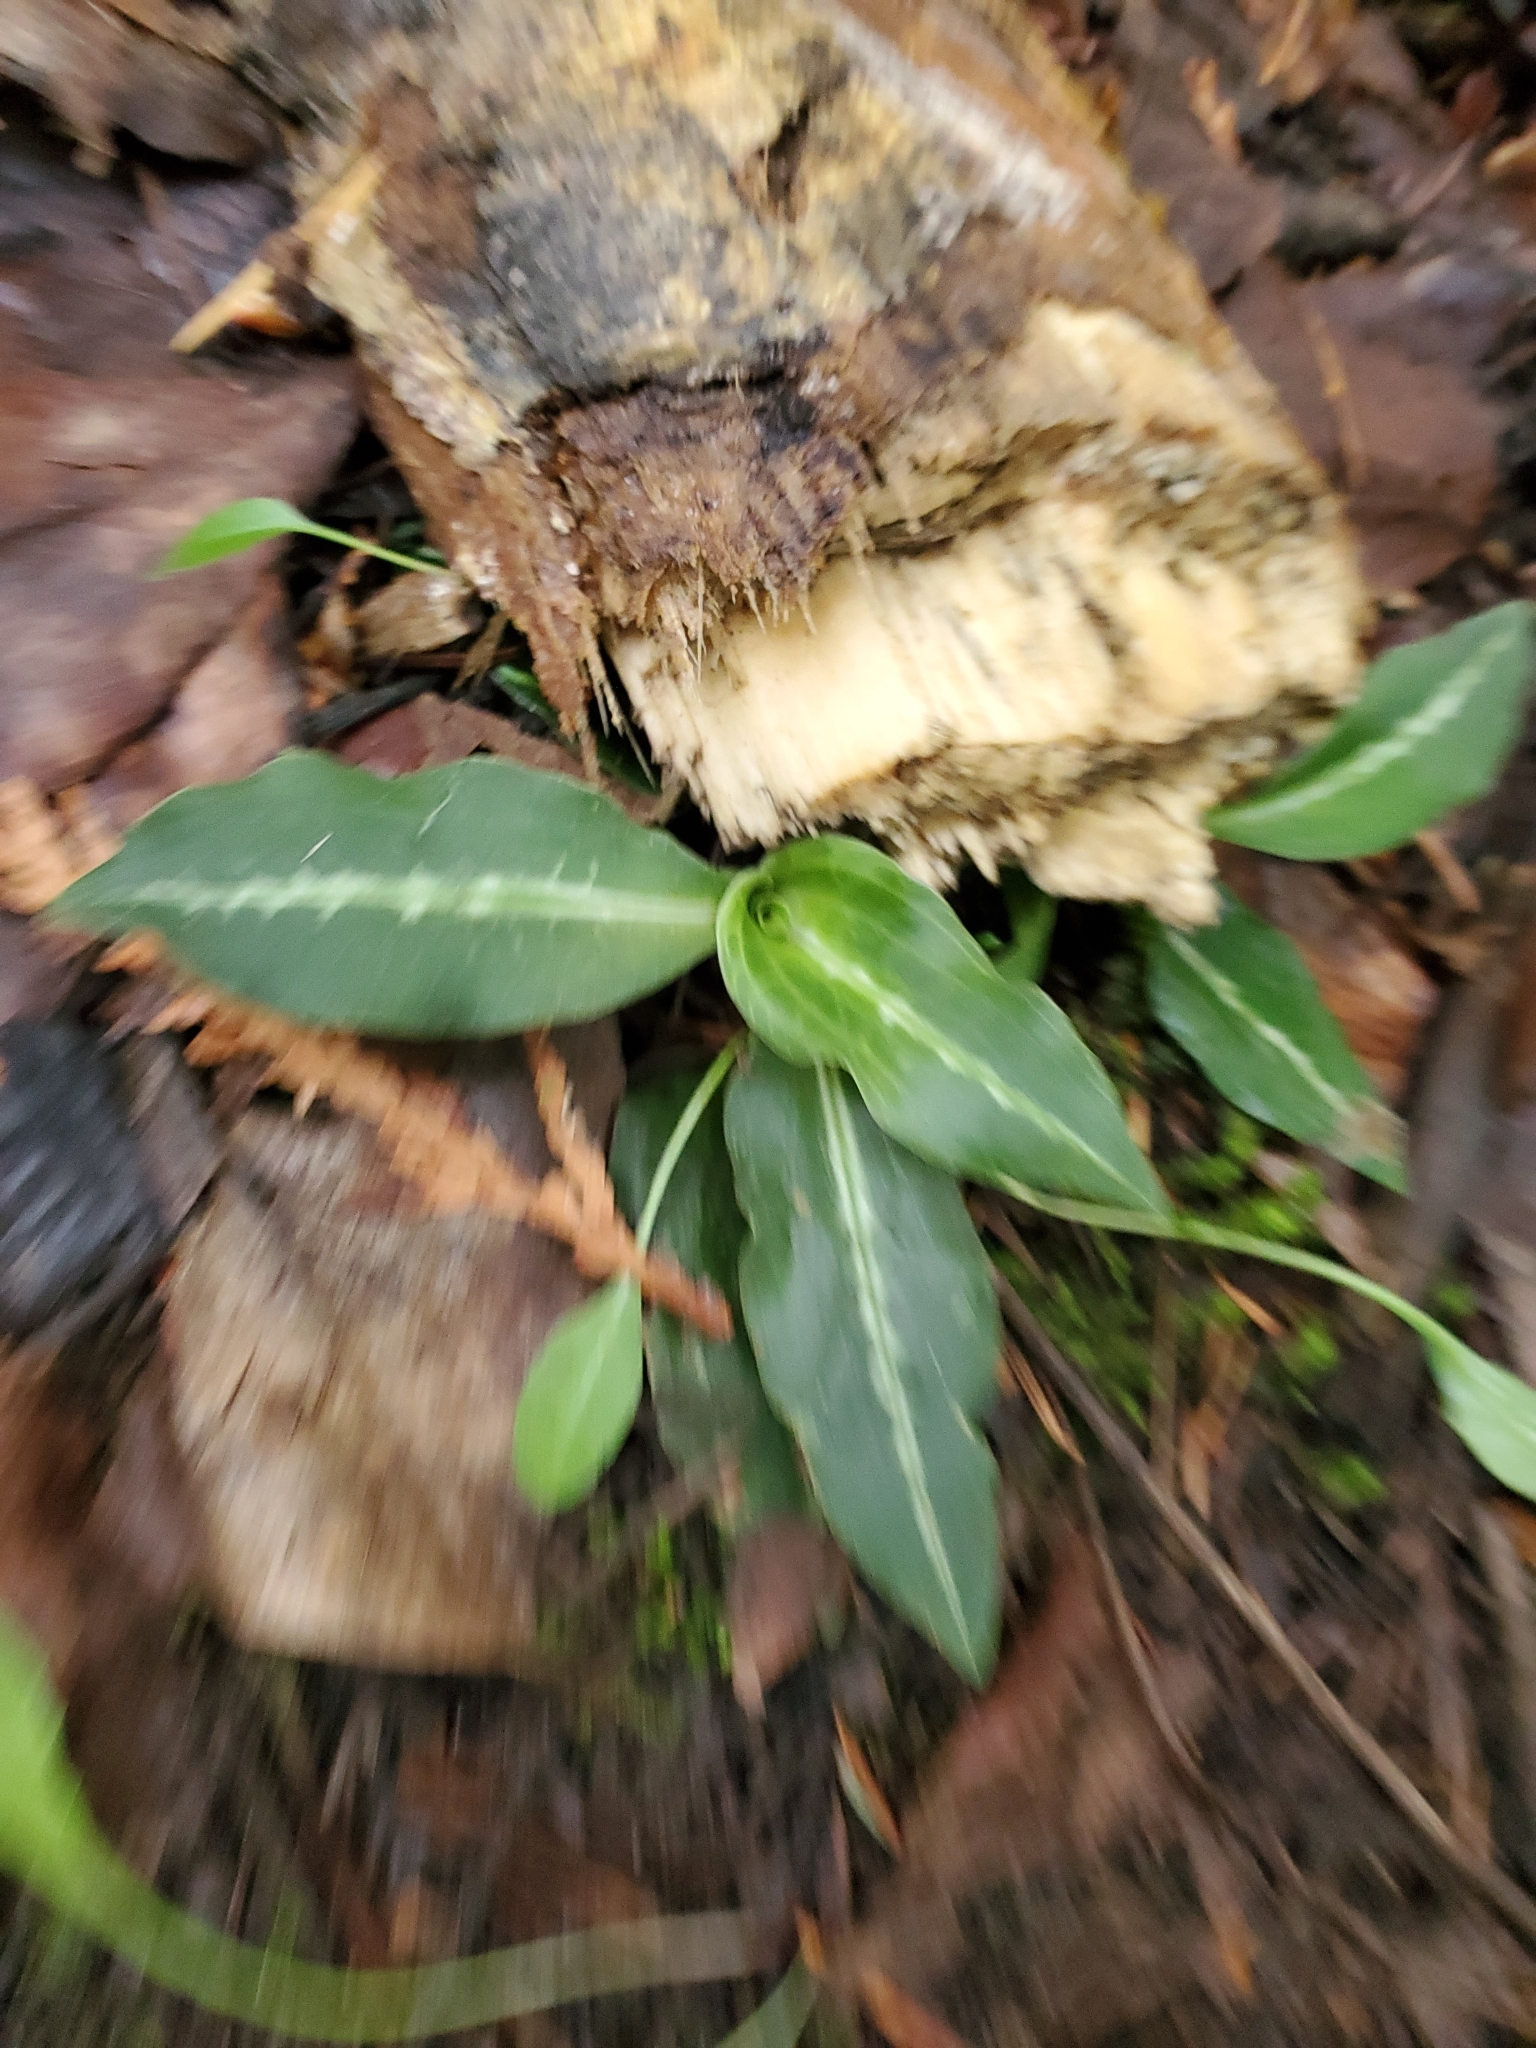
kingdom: Plantae
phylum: Tracheophyta
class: Liliopsida
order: Asparagales
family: Orchidaceae
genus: Goodyera
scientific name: Goodyera oblongifolia
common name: Giant rattlesnake-plantain
